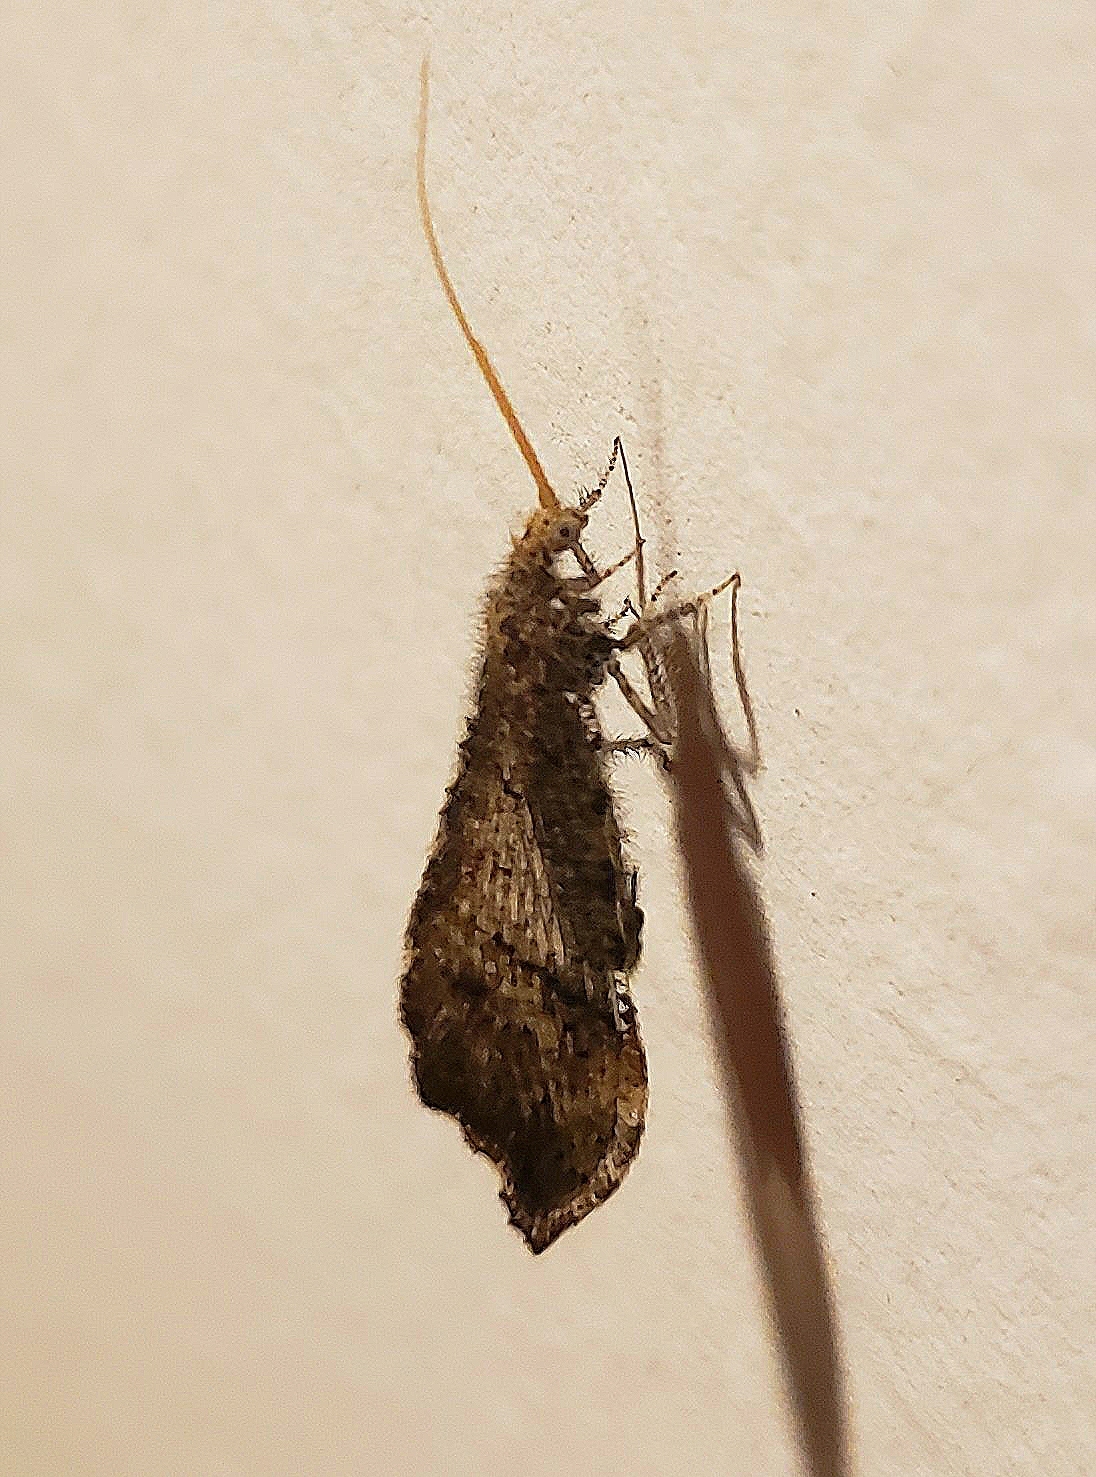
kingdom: Animalia
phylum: Arthropoda
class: Insecta
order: Neuroptera
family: Berothidae
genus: Lomamyia
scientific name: Lomamyia flavicornis
